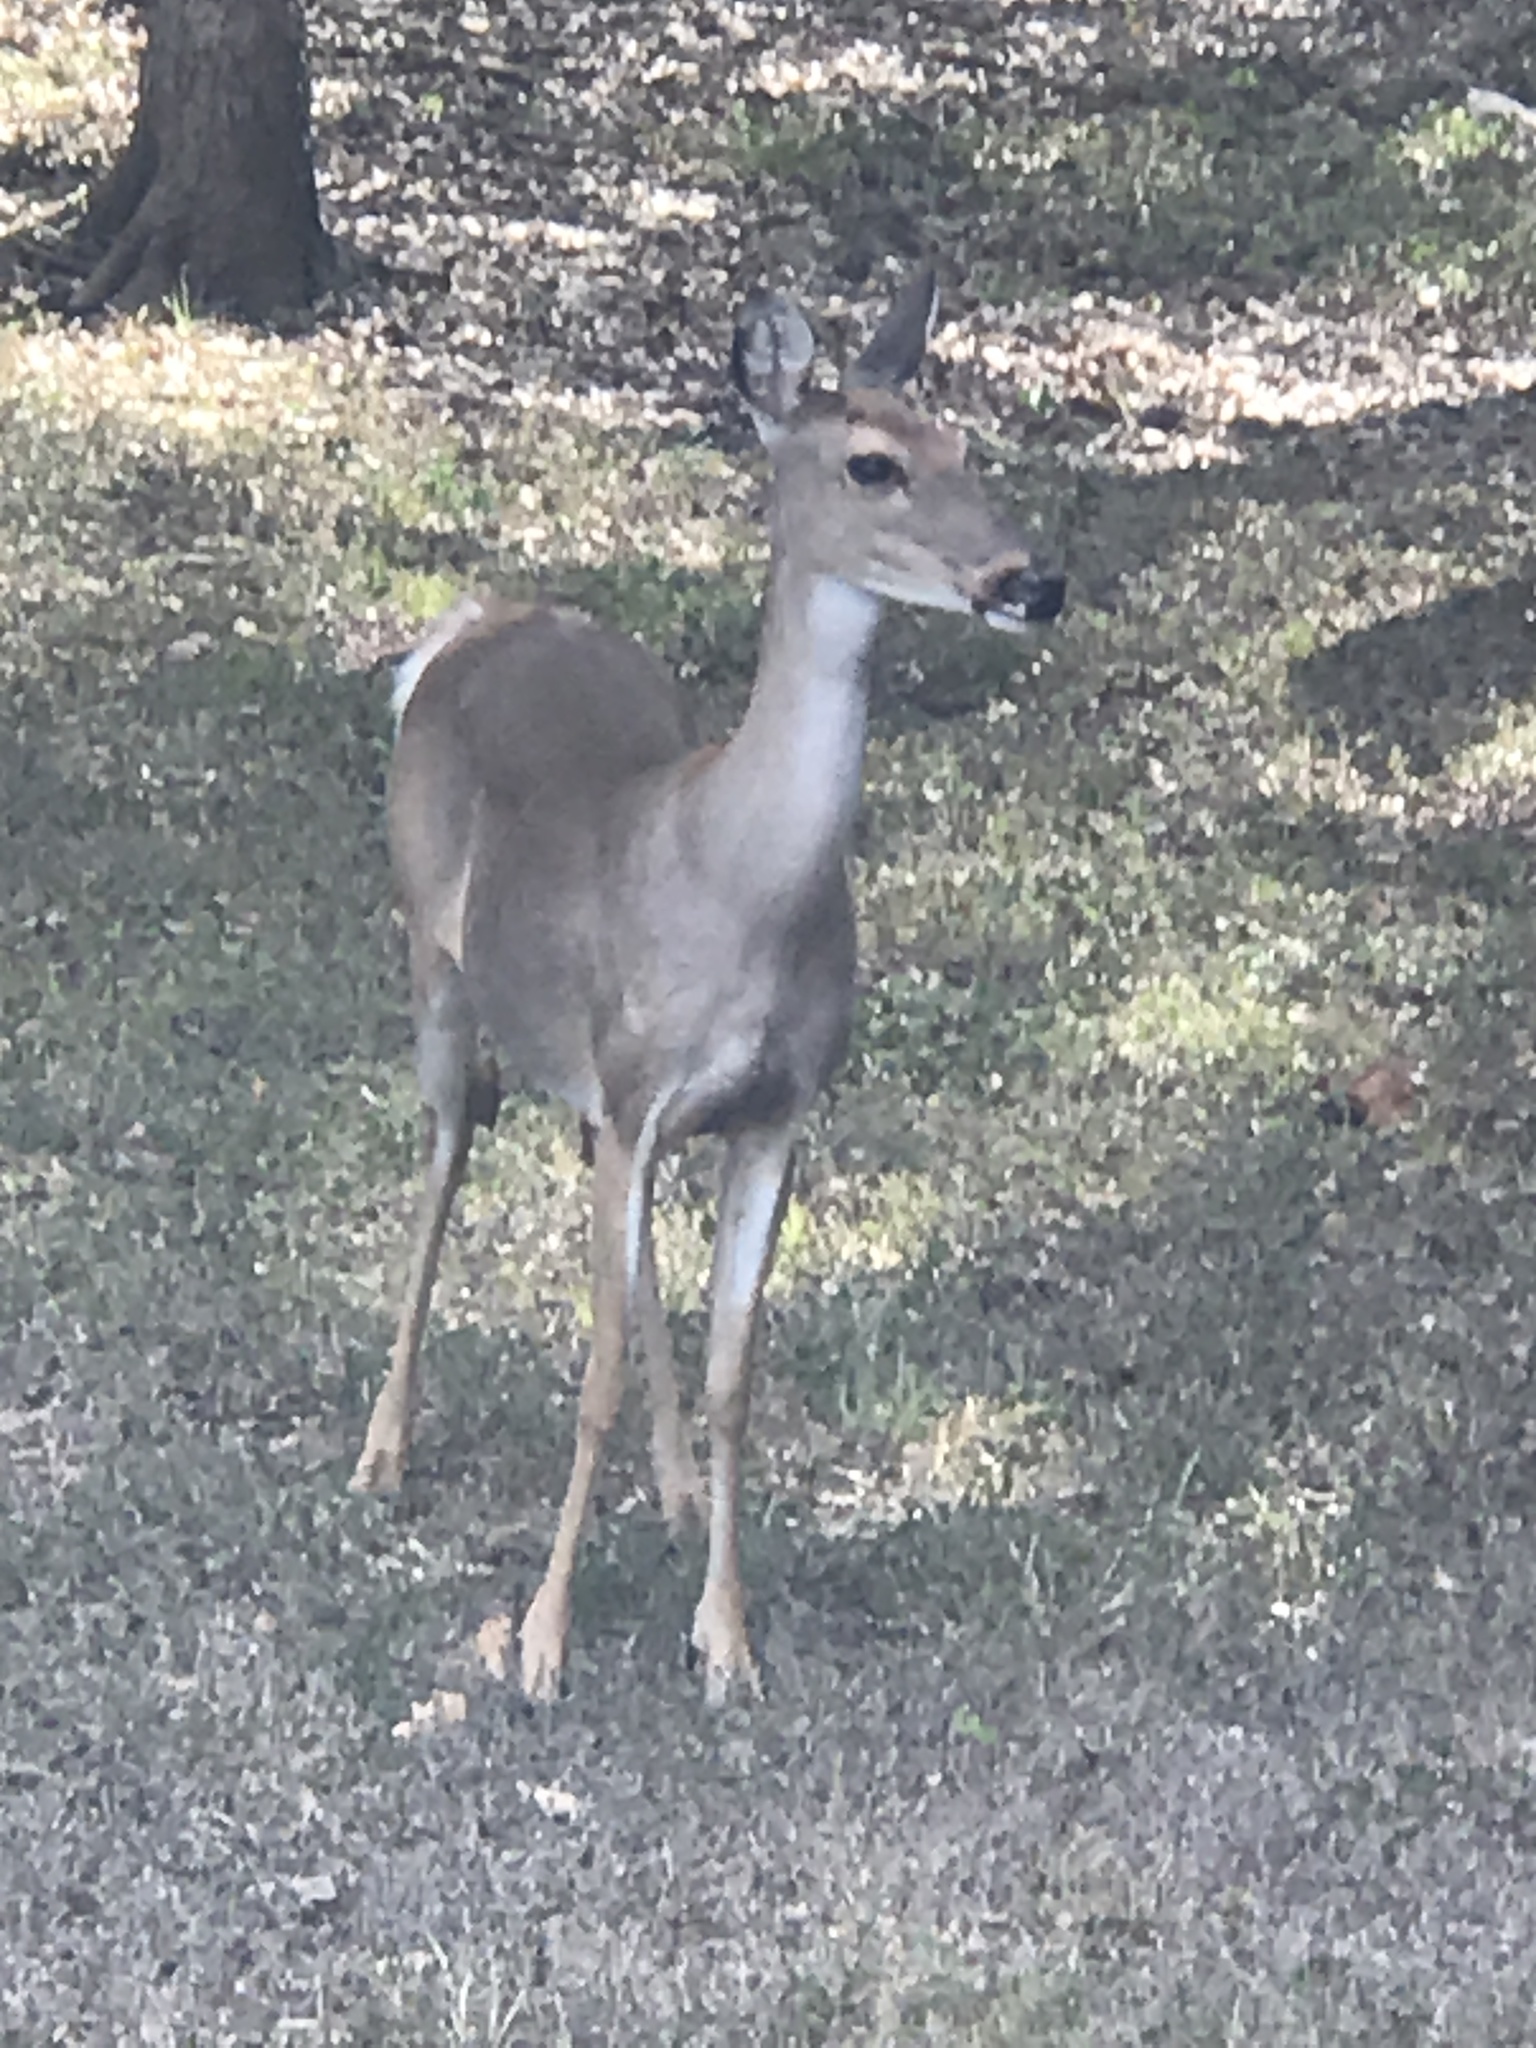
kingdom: Animalia
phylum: Chordata
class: Mammalia
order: Artiodactyla
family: Cervidae
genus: Odocoileus
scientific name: Odocoileus virginianus
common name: White-tailed deer
